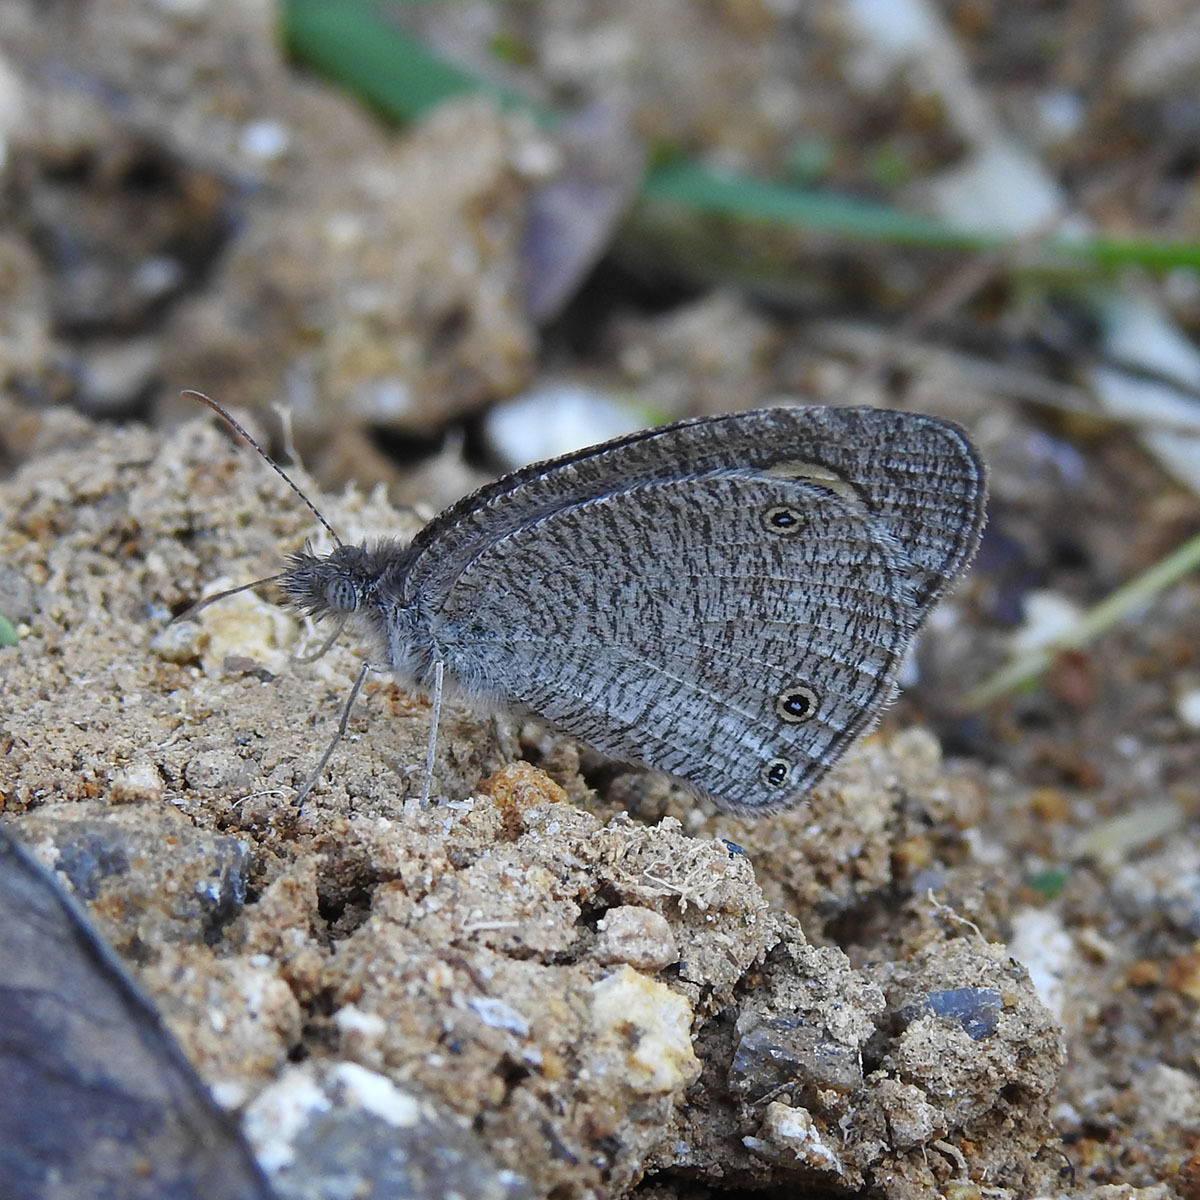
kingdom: Animalia
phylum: Arthropoda
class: Insecta
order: Lepidoptera
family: Nymphalidae
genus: Ypthima
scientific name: Ypthima asterope
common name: African ringlet
